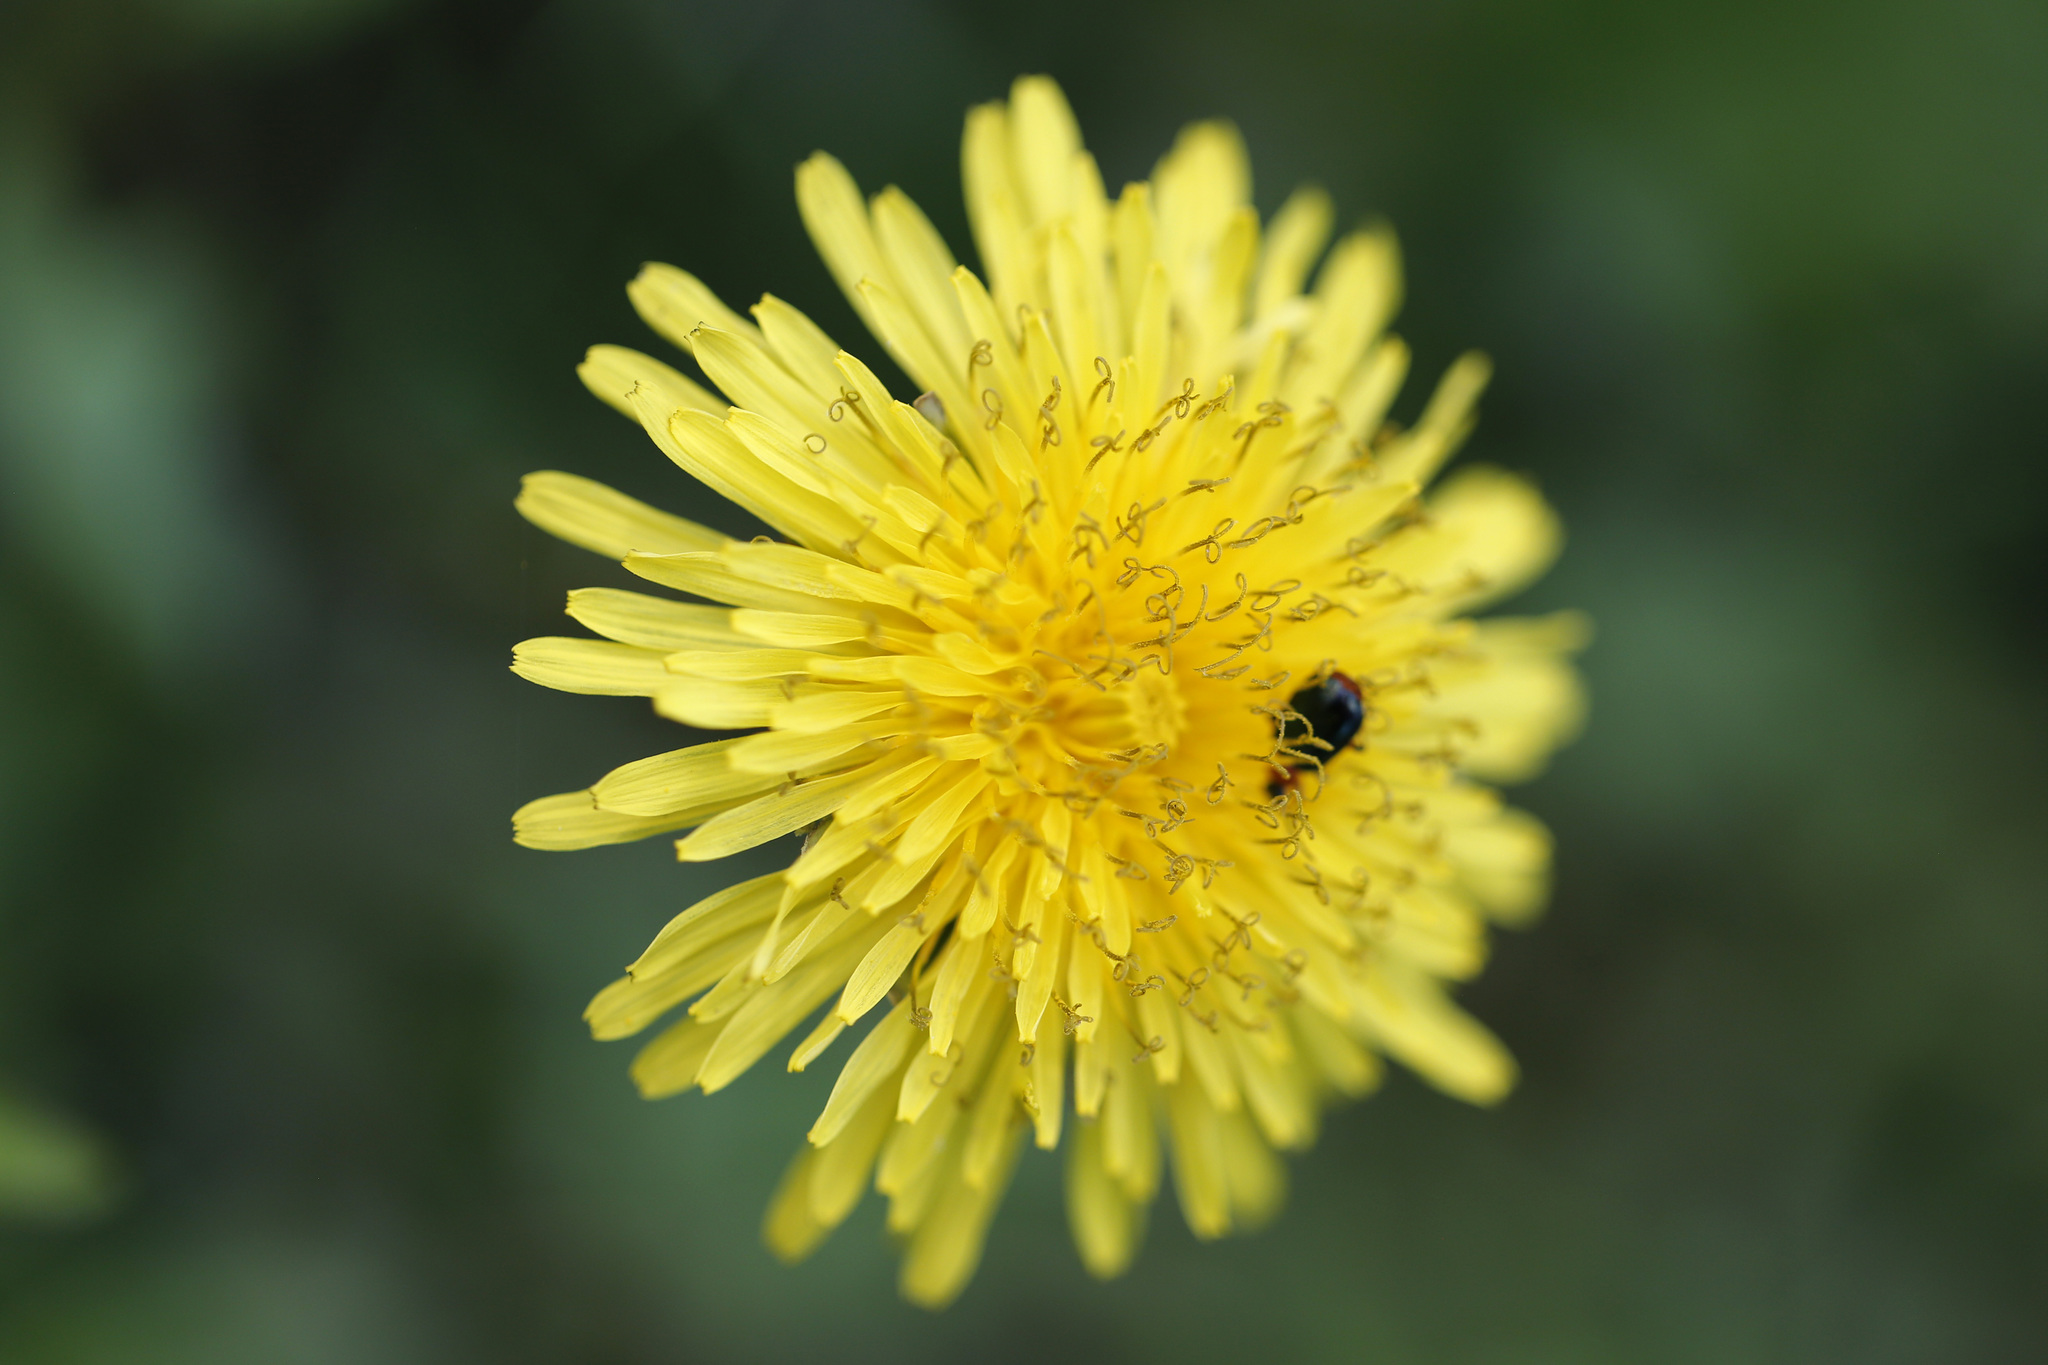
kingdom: Plantae
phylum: Tracheophyta
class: Magnoliopsida
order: Asterales
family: Asteraceae
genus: Taraxacum
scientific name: Taraxacum officinale
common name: Common dandelion
